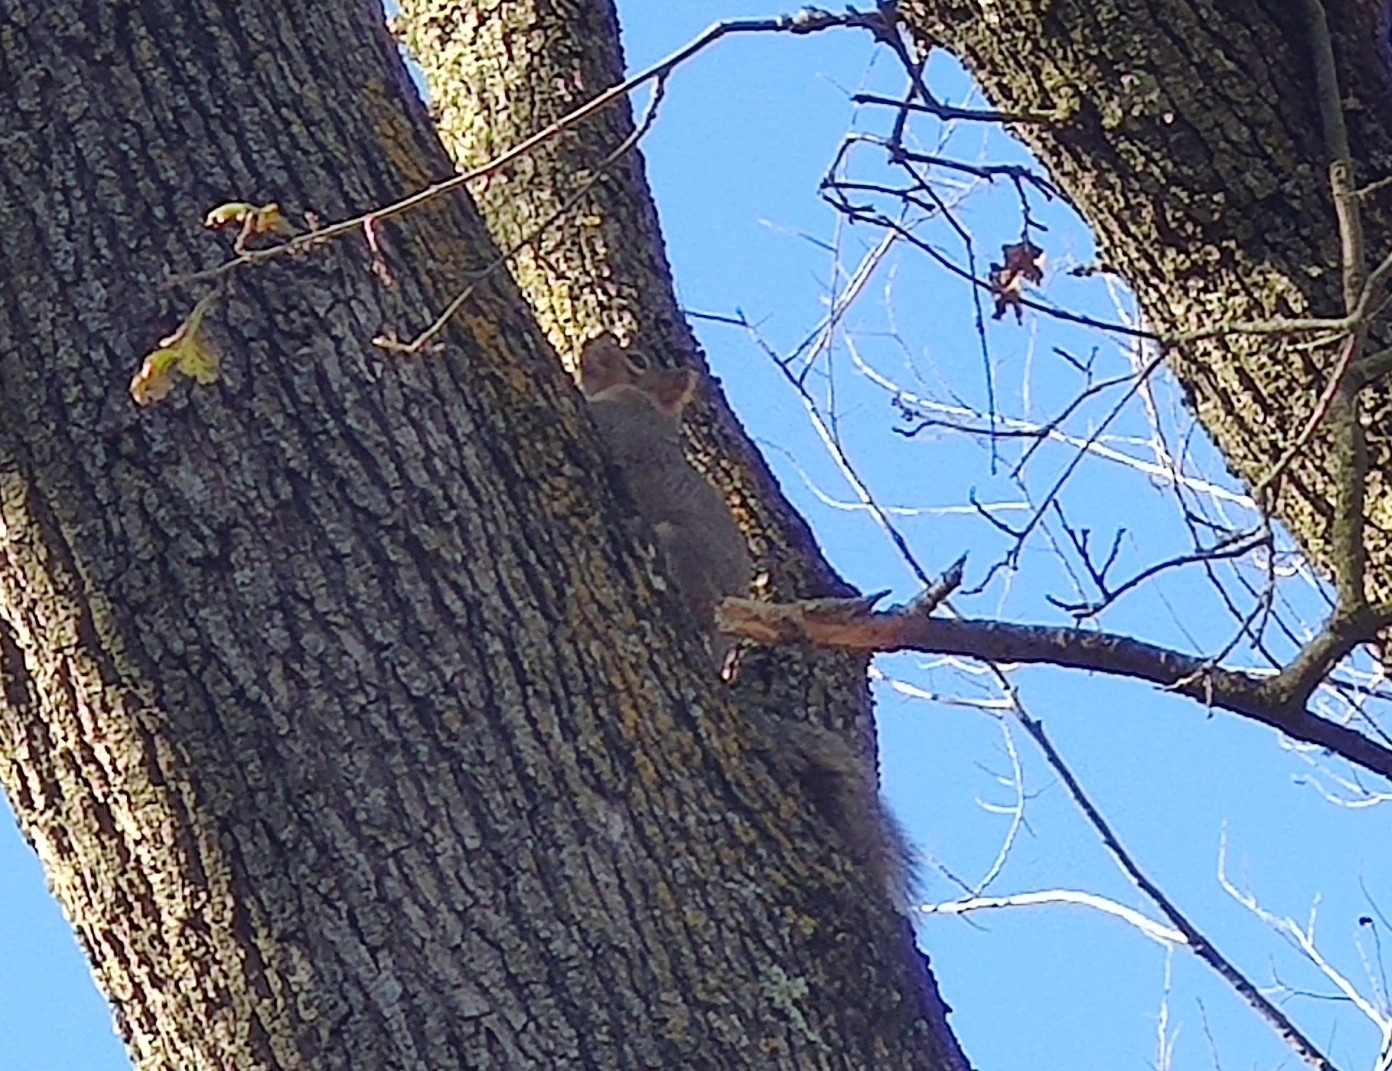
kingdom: Animalia
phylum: Chordata
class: Mammalia
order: Rodentia
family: Sciuridae
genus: Sciurus
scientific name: Sciurus niger
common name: Fox squirrel
